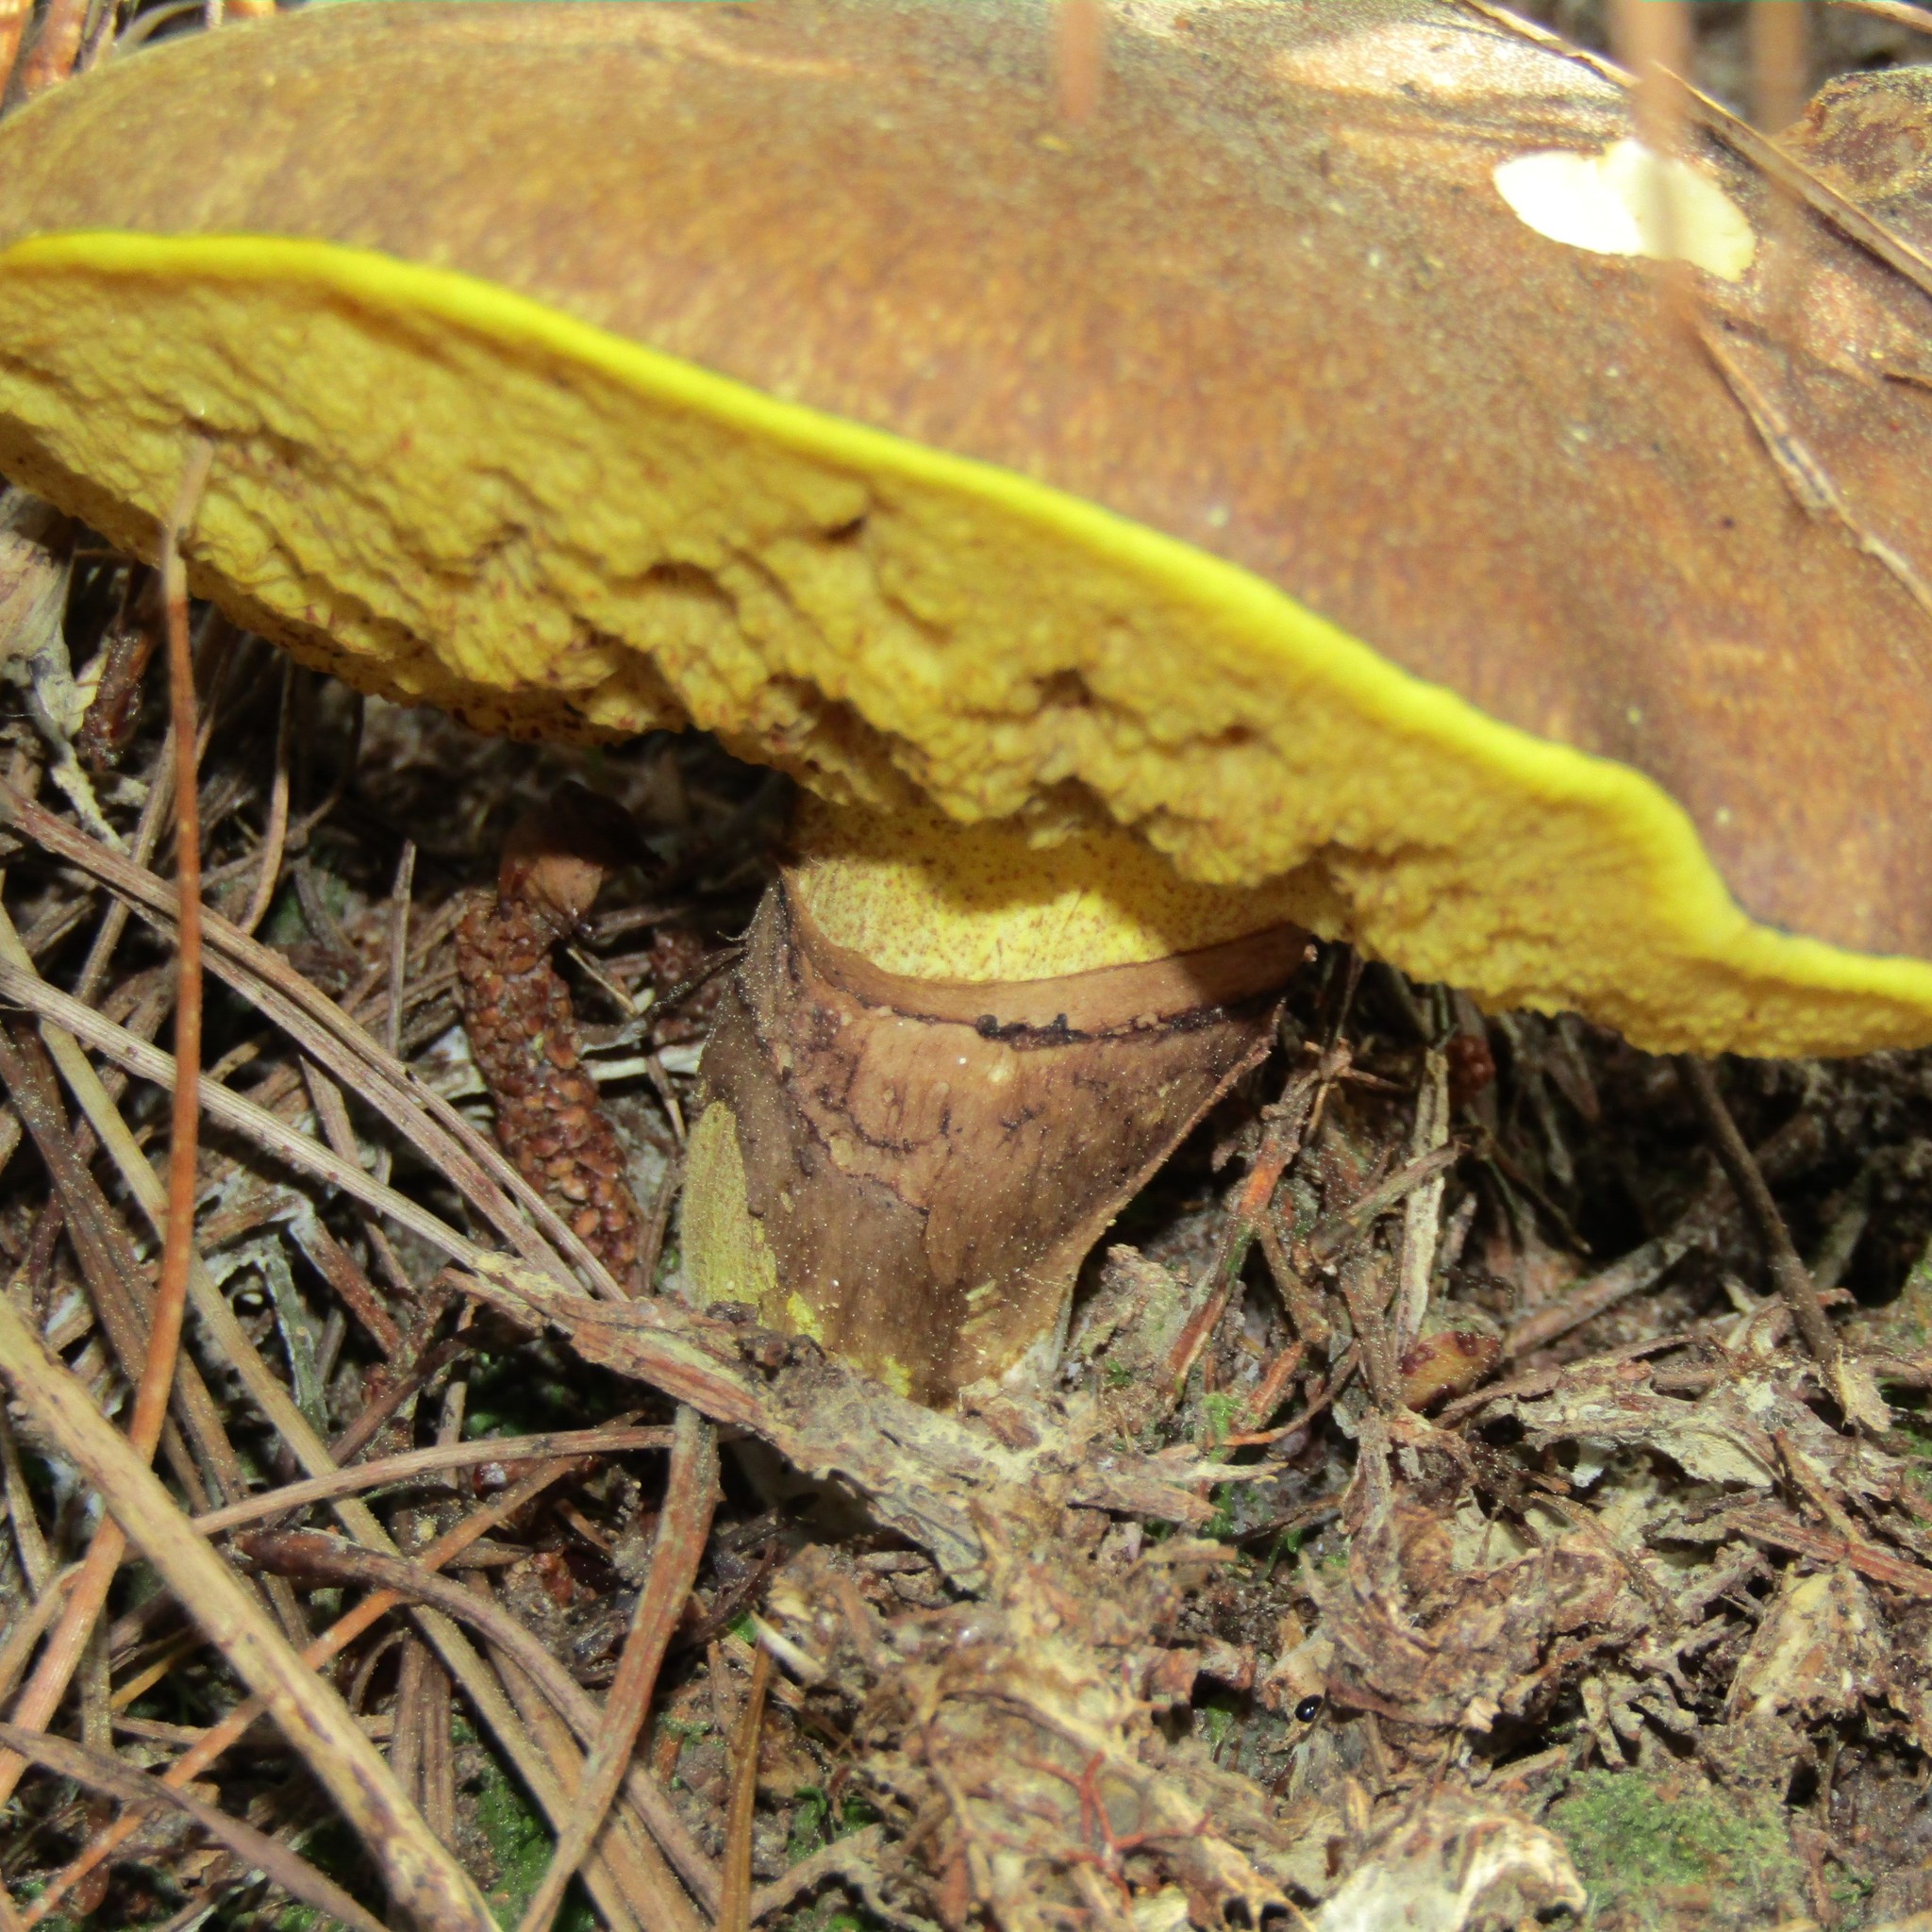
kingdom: Fungi
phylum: Basidiomycota
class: Agaricomycetes
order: Boletales
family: Suillaceae
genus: Suillus
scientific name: Suillus luteus
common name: Slippery jack
